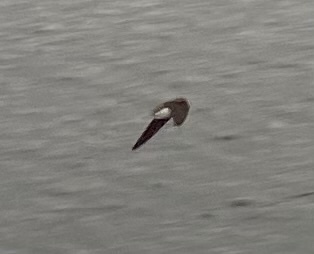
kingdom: Animalia
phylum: Chordata
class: Aves
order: Passeriformes
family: Hirundinidae
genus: Riparia
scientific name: Riparia riparia
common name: Sand martin
